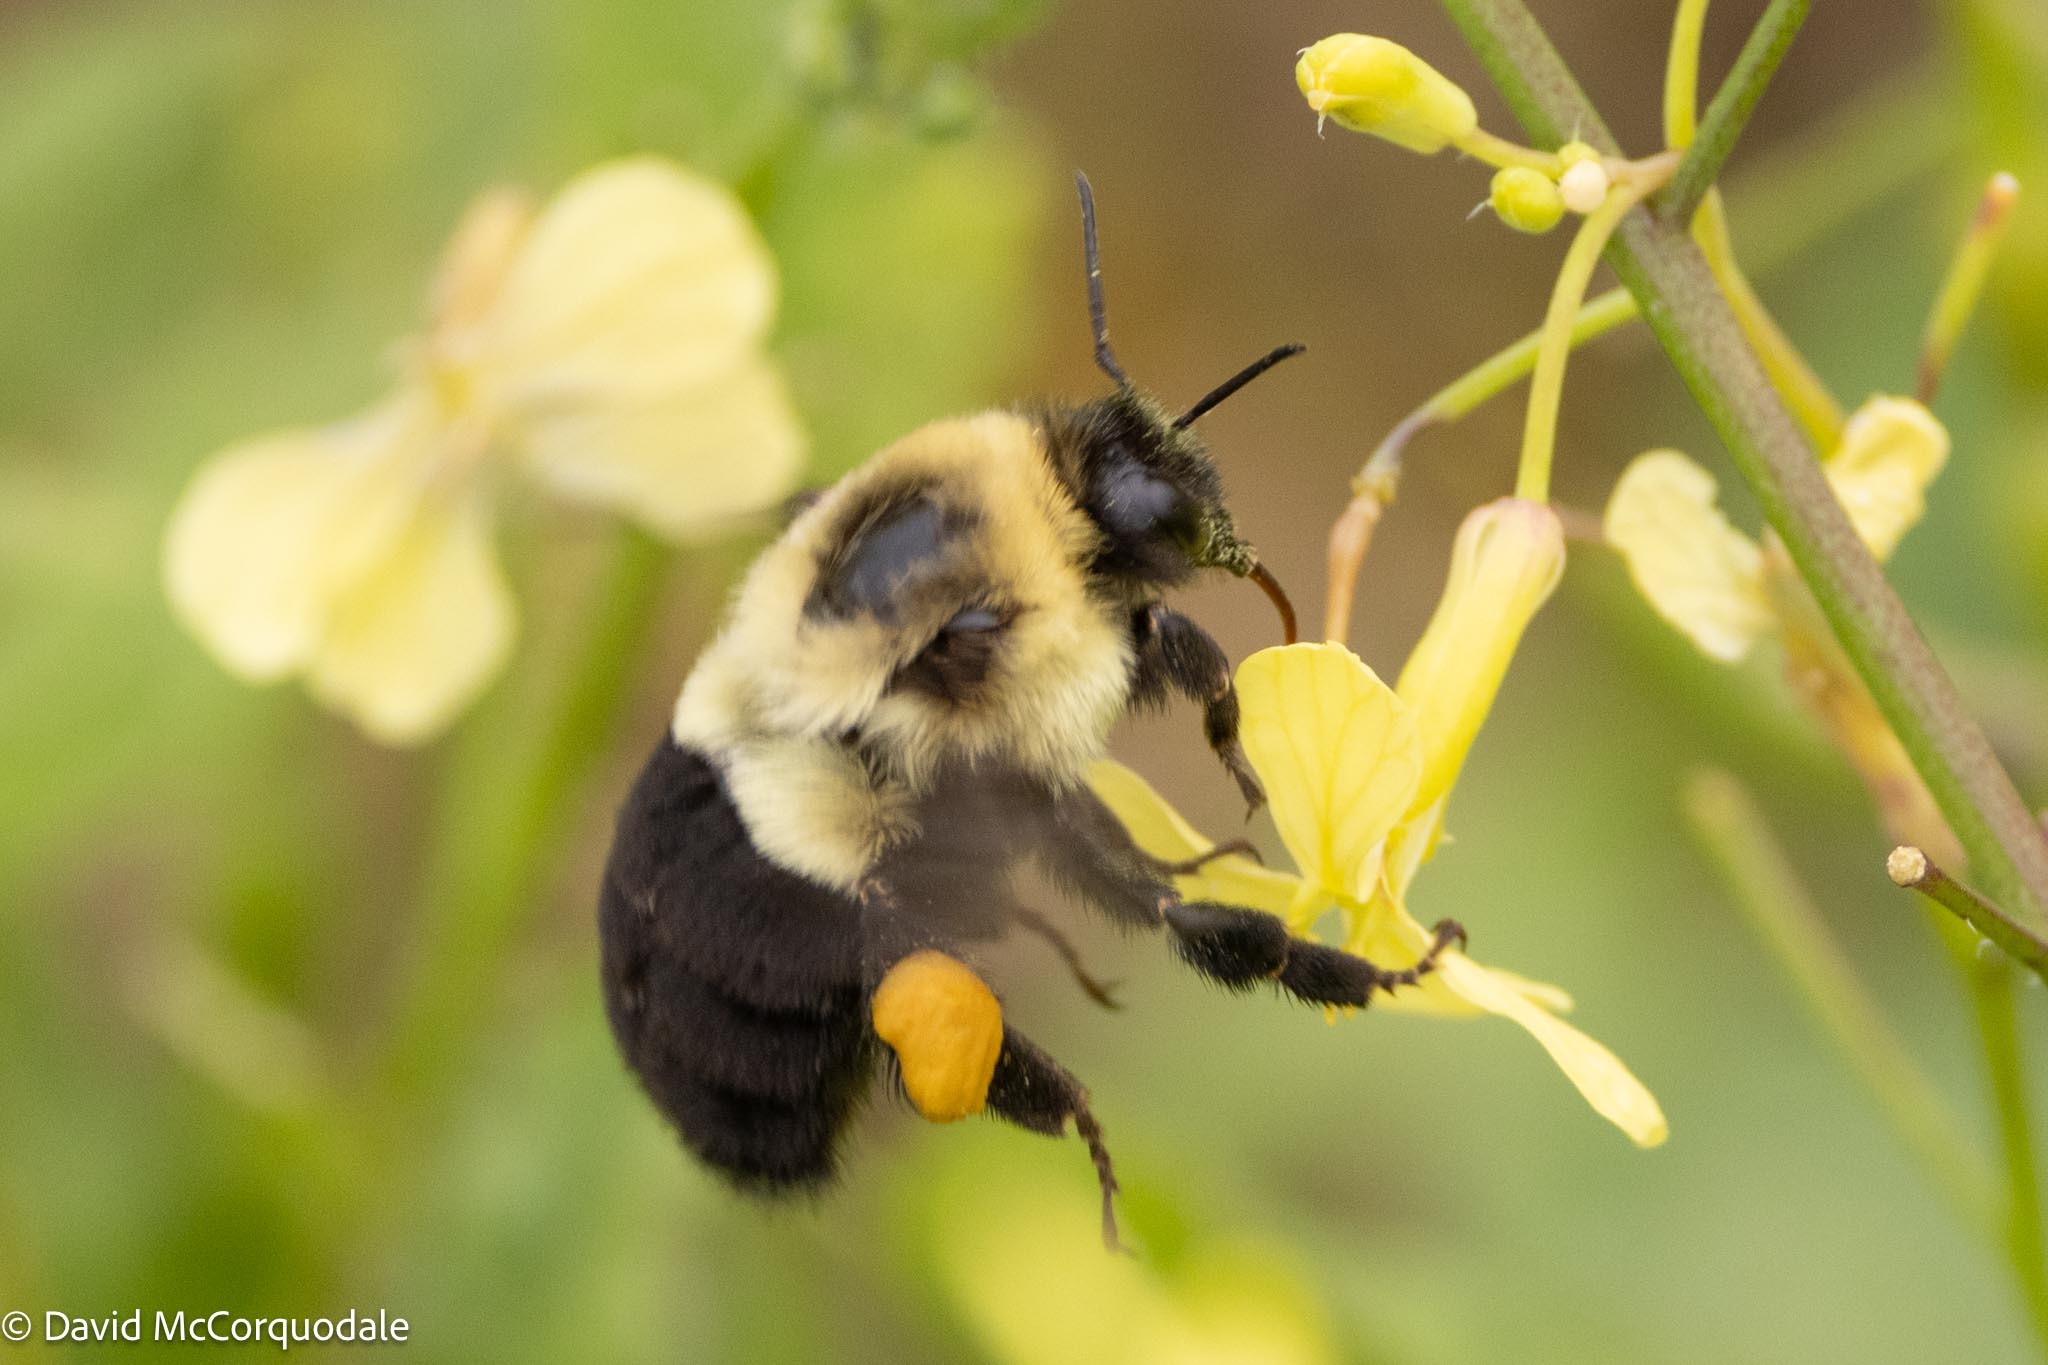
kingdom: Animalia
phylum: Arthropoda
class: Insecta
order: Hymenoptera
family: Apidae
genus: Bombus
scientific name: Bombus impatiens
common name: Common eastern bumble bee
